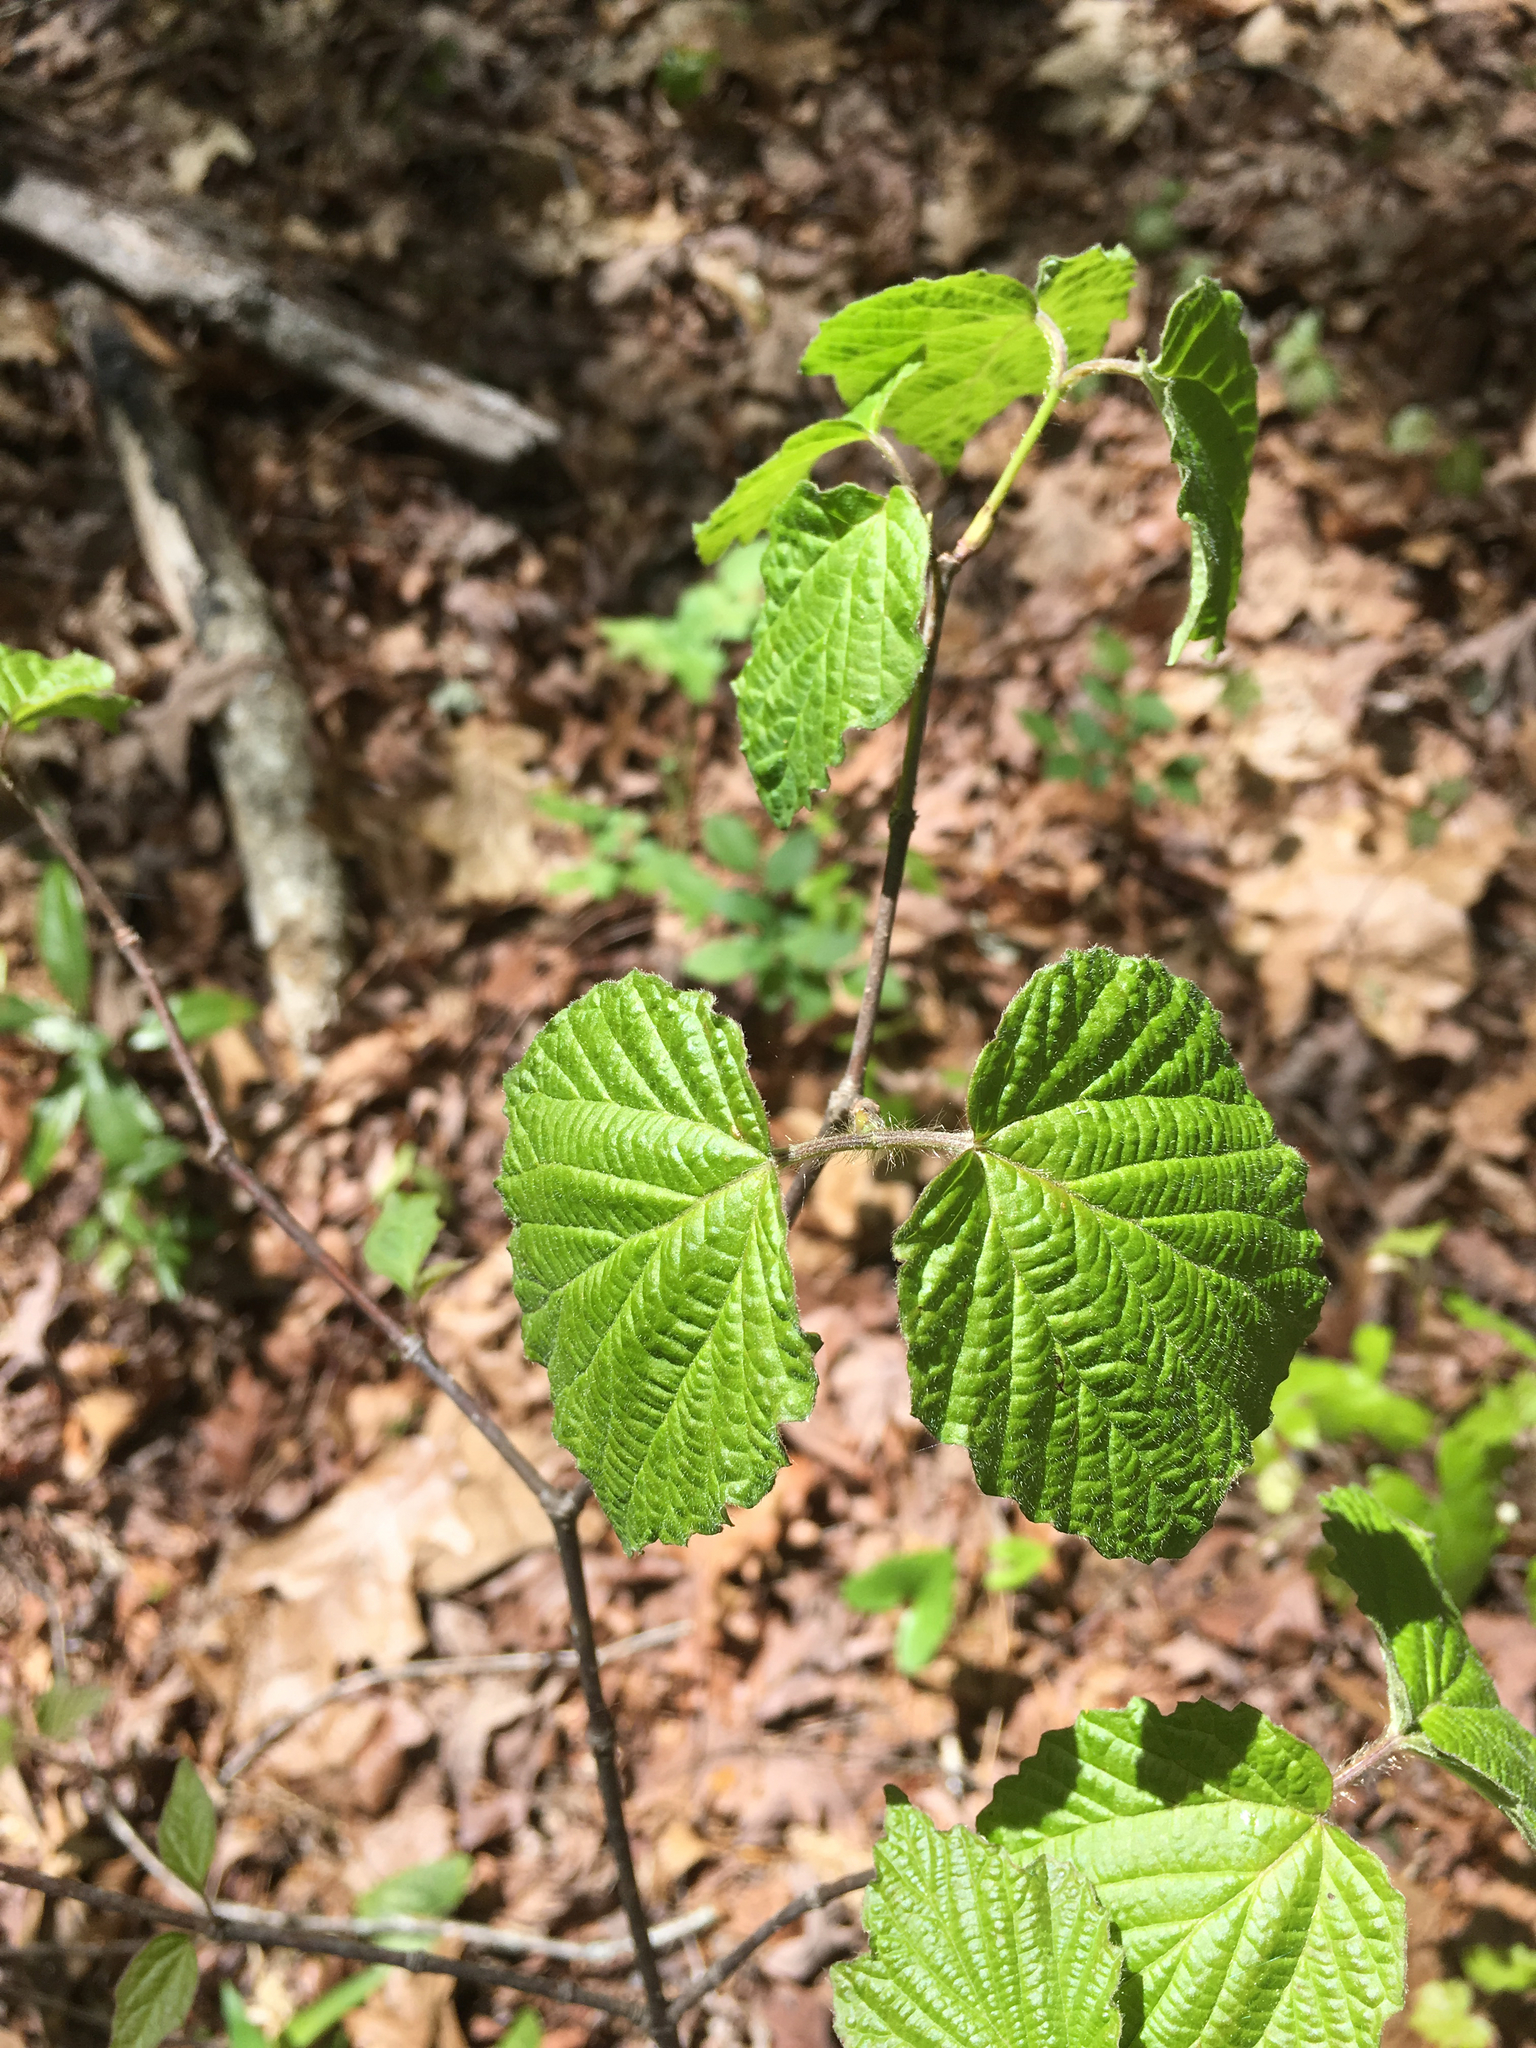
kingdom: Plantae
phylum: Tracheophyta
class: Magnoliopsida
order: Dipsacales
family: Viburnaceae
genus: Viburnum
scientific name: Viburnum acerifolium
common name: Dockmackie
